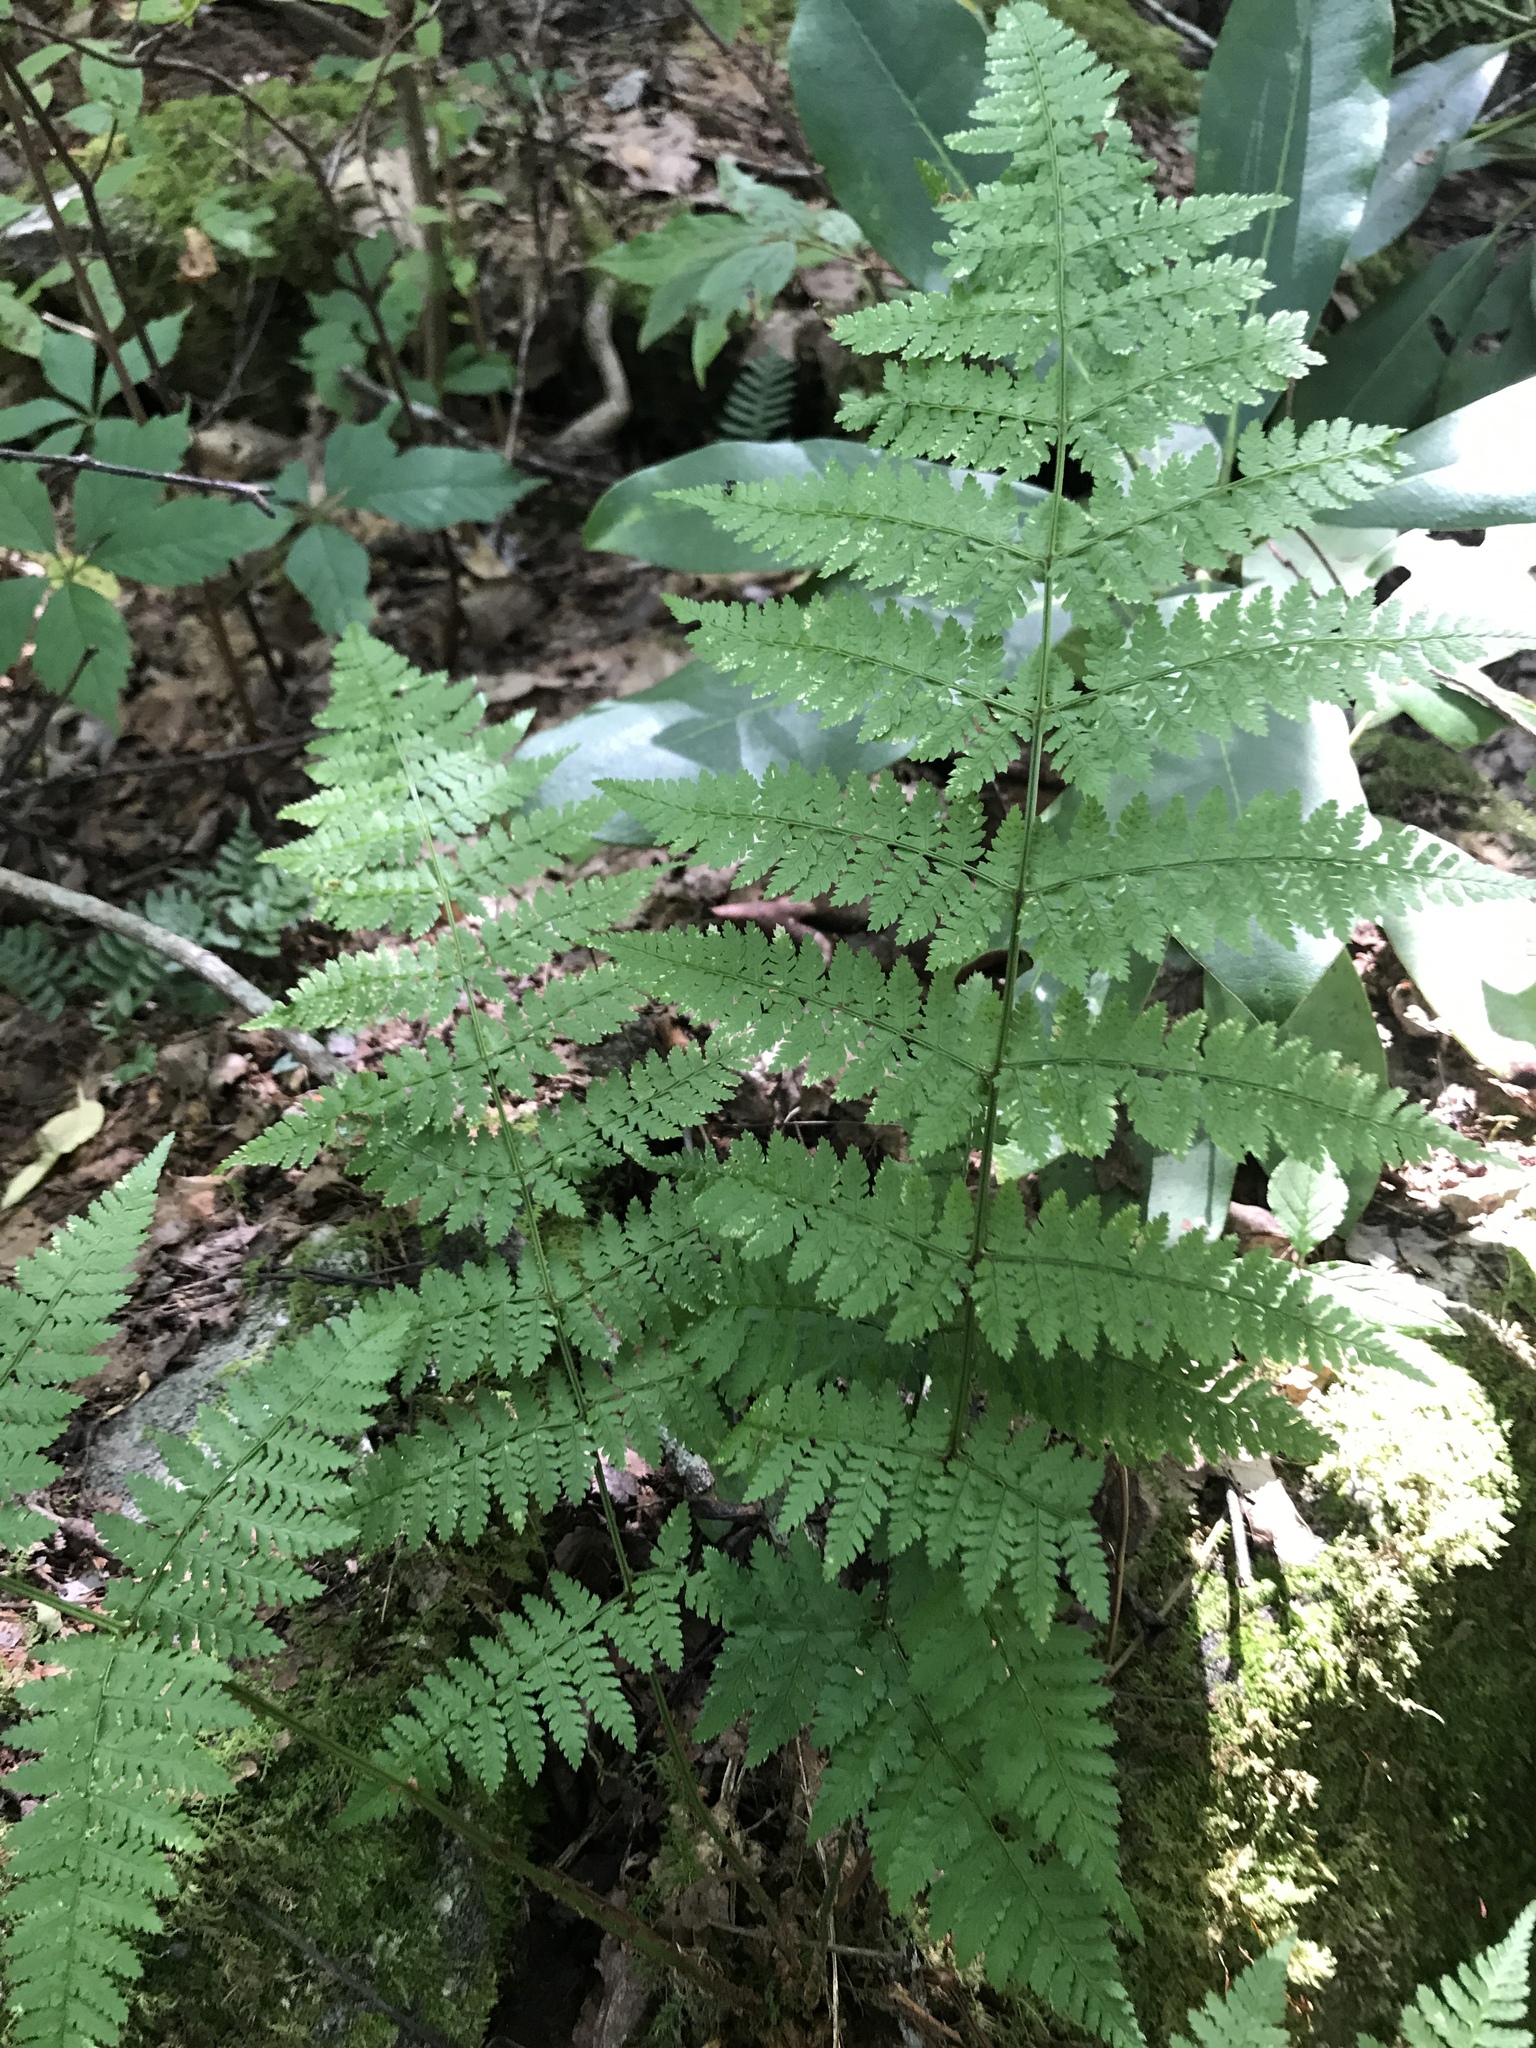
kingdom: Plantae
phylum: Tracheophyta
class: Polypodiopsida
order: Polypodiales
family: Dryopteridaceae
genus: Dryopteris
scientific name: Dryopteris intermedia
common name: Evergreen wood fern
